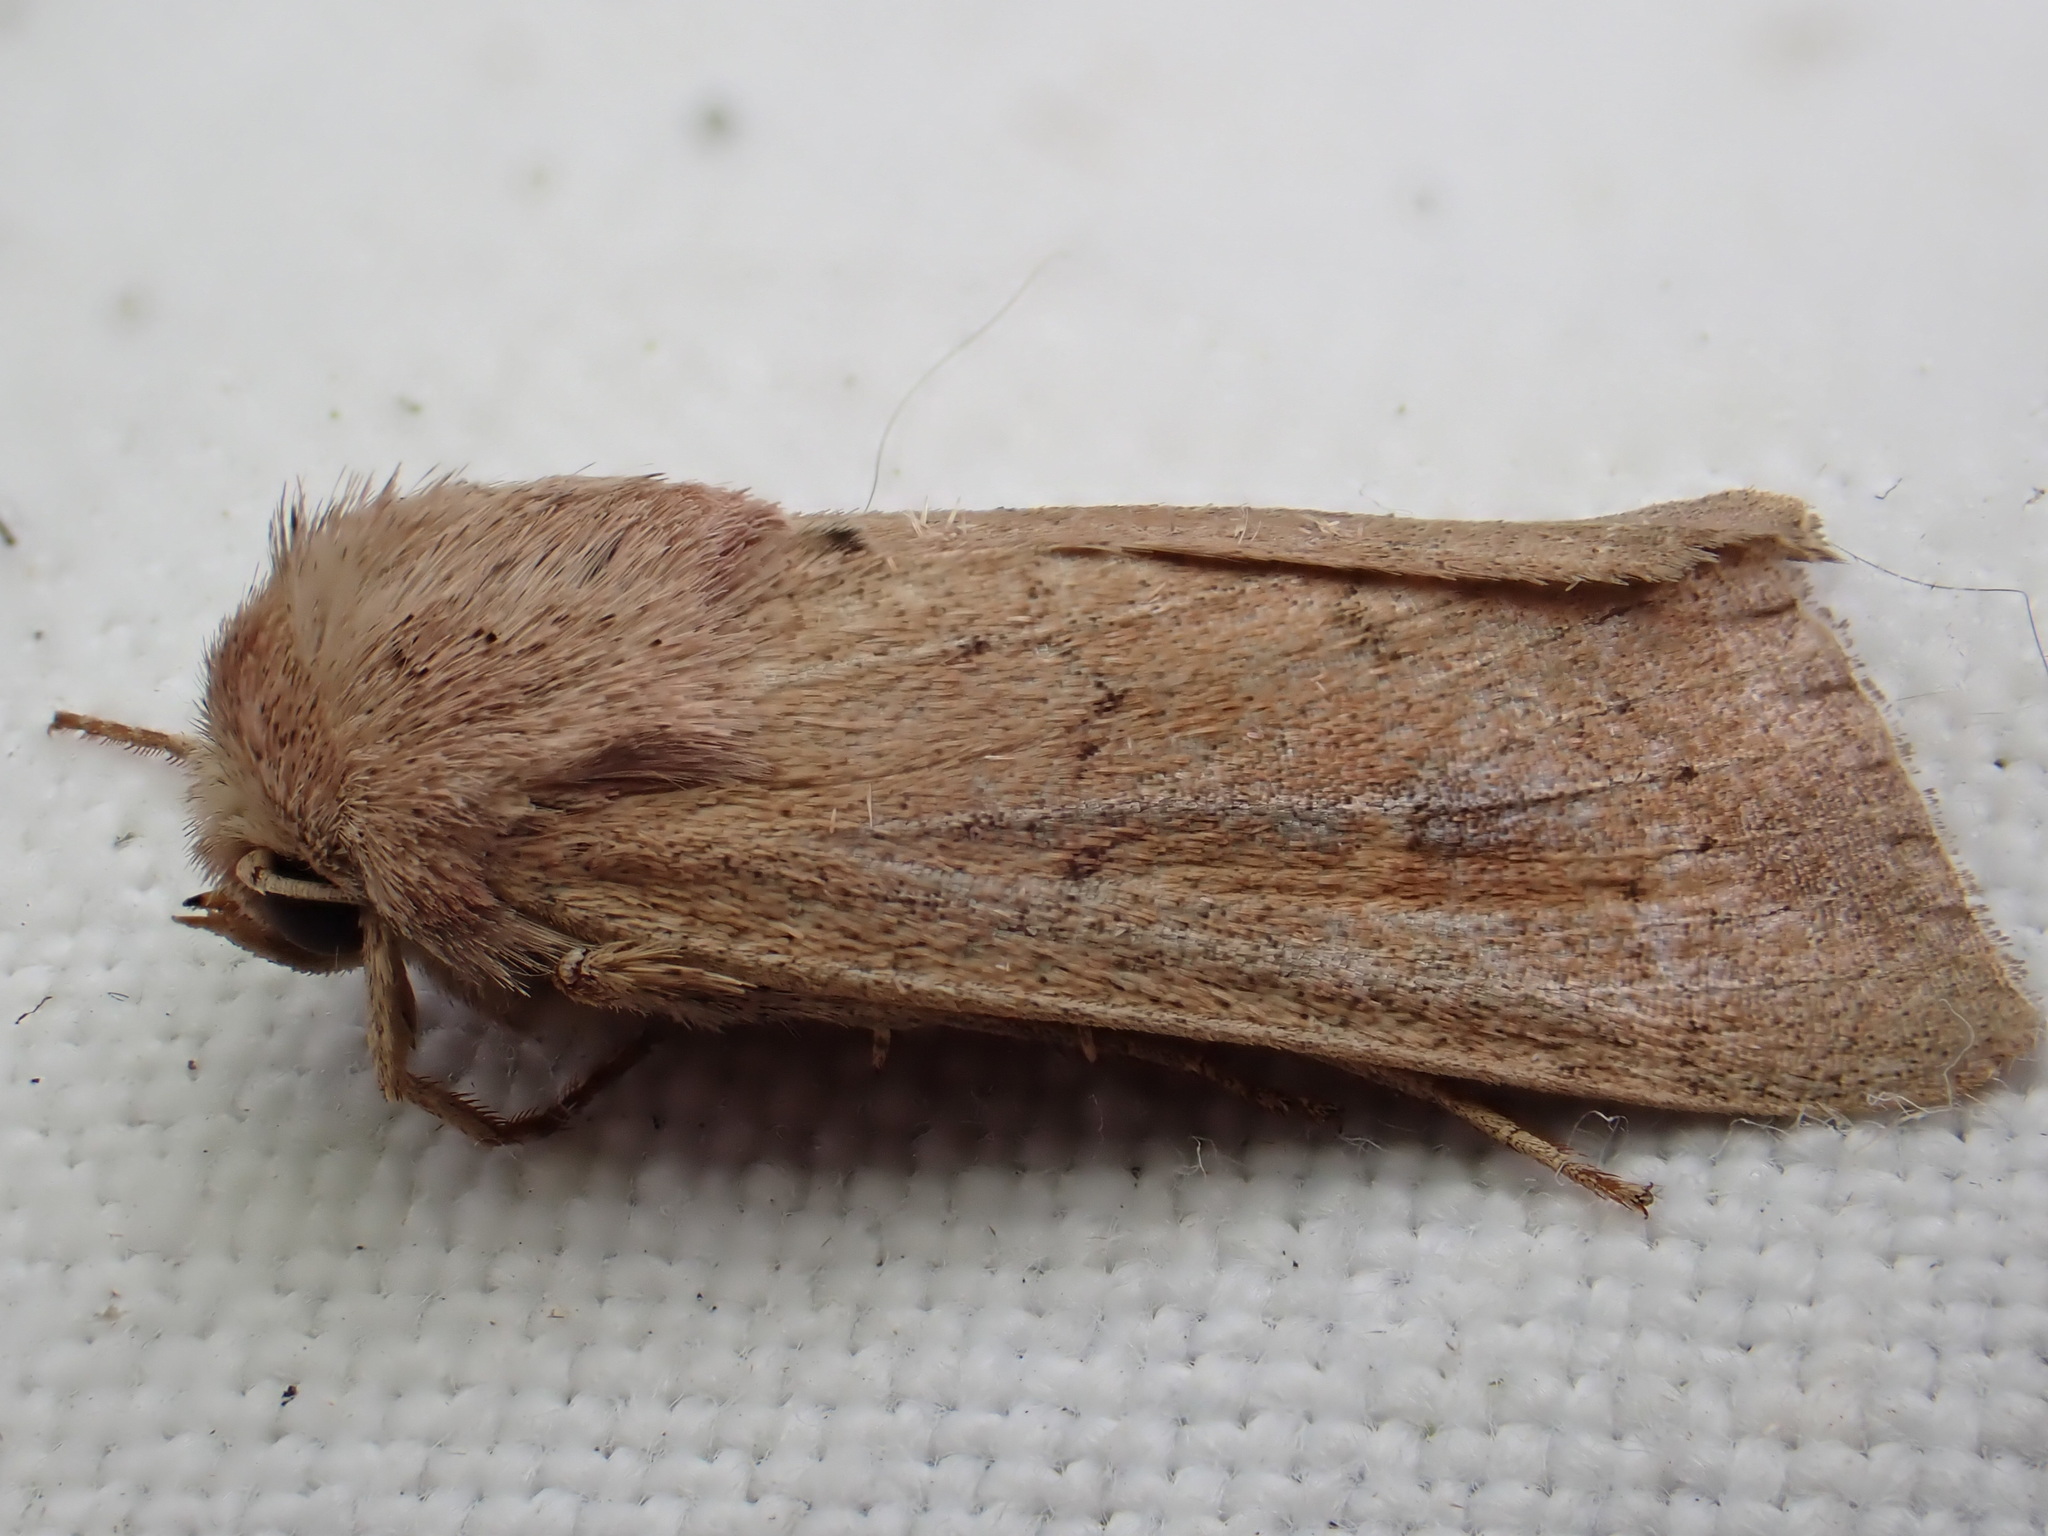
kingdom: Animalia
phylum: Arthropoda
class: Insecta
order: Lepidoptera
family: Noctuidae
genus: Mythimna
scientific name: Mythimna ferrago
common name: Clay
